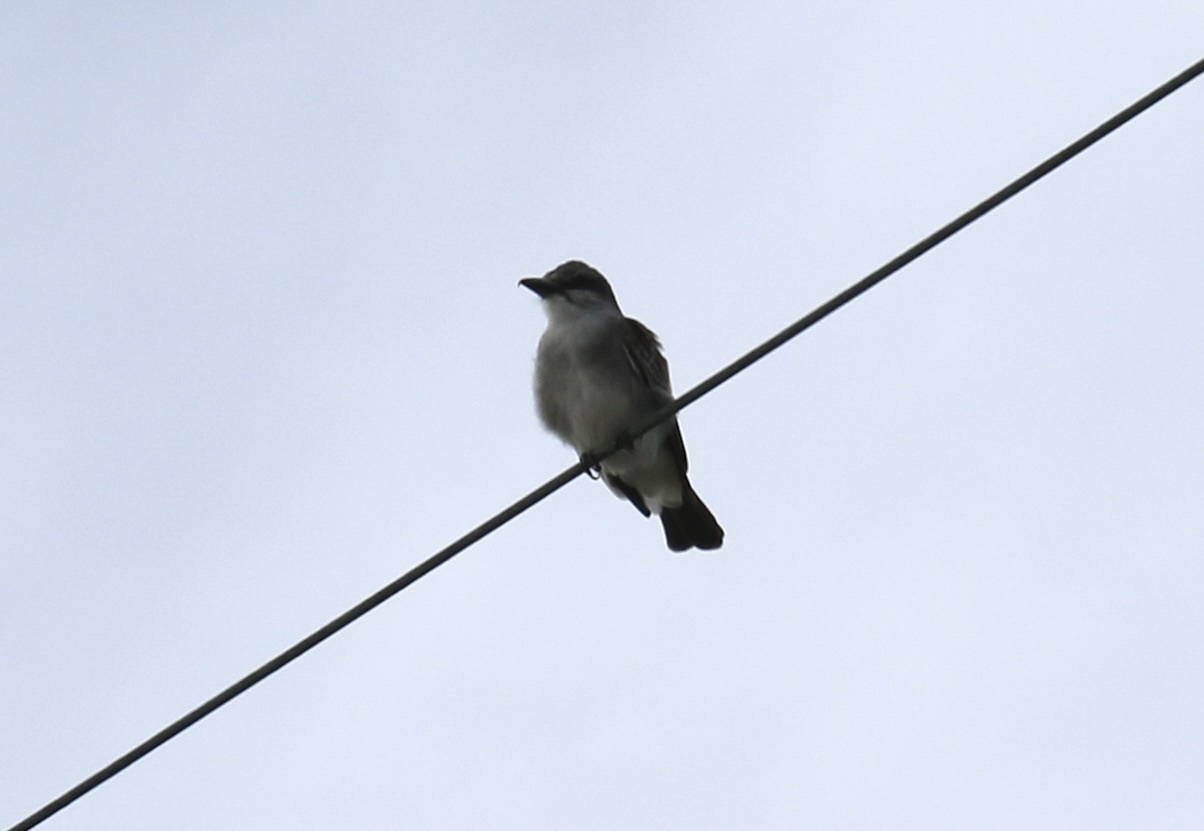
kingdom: Animalia
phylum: Chordata
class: Aves
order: Passeriformes
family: Tyrannidae
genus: Tyrannus
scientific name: Tyrannus dominicensis
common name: Gray kingbird
